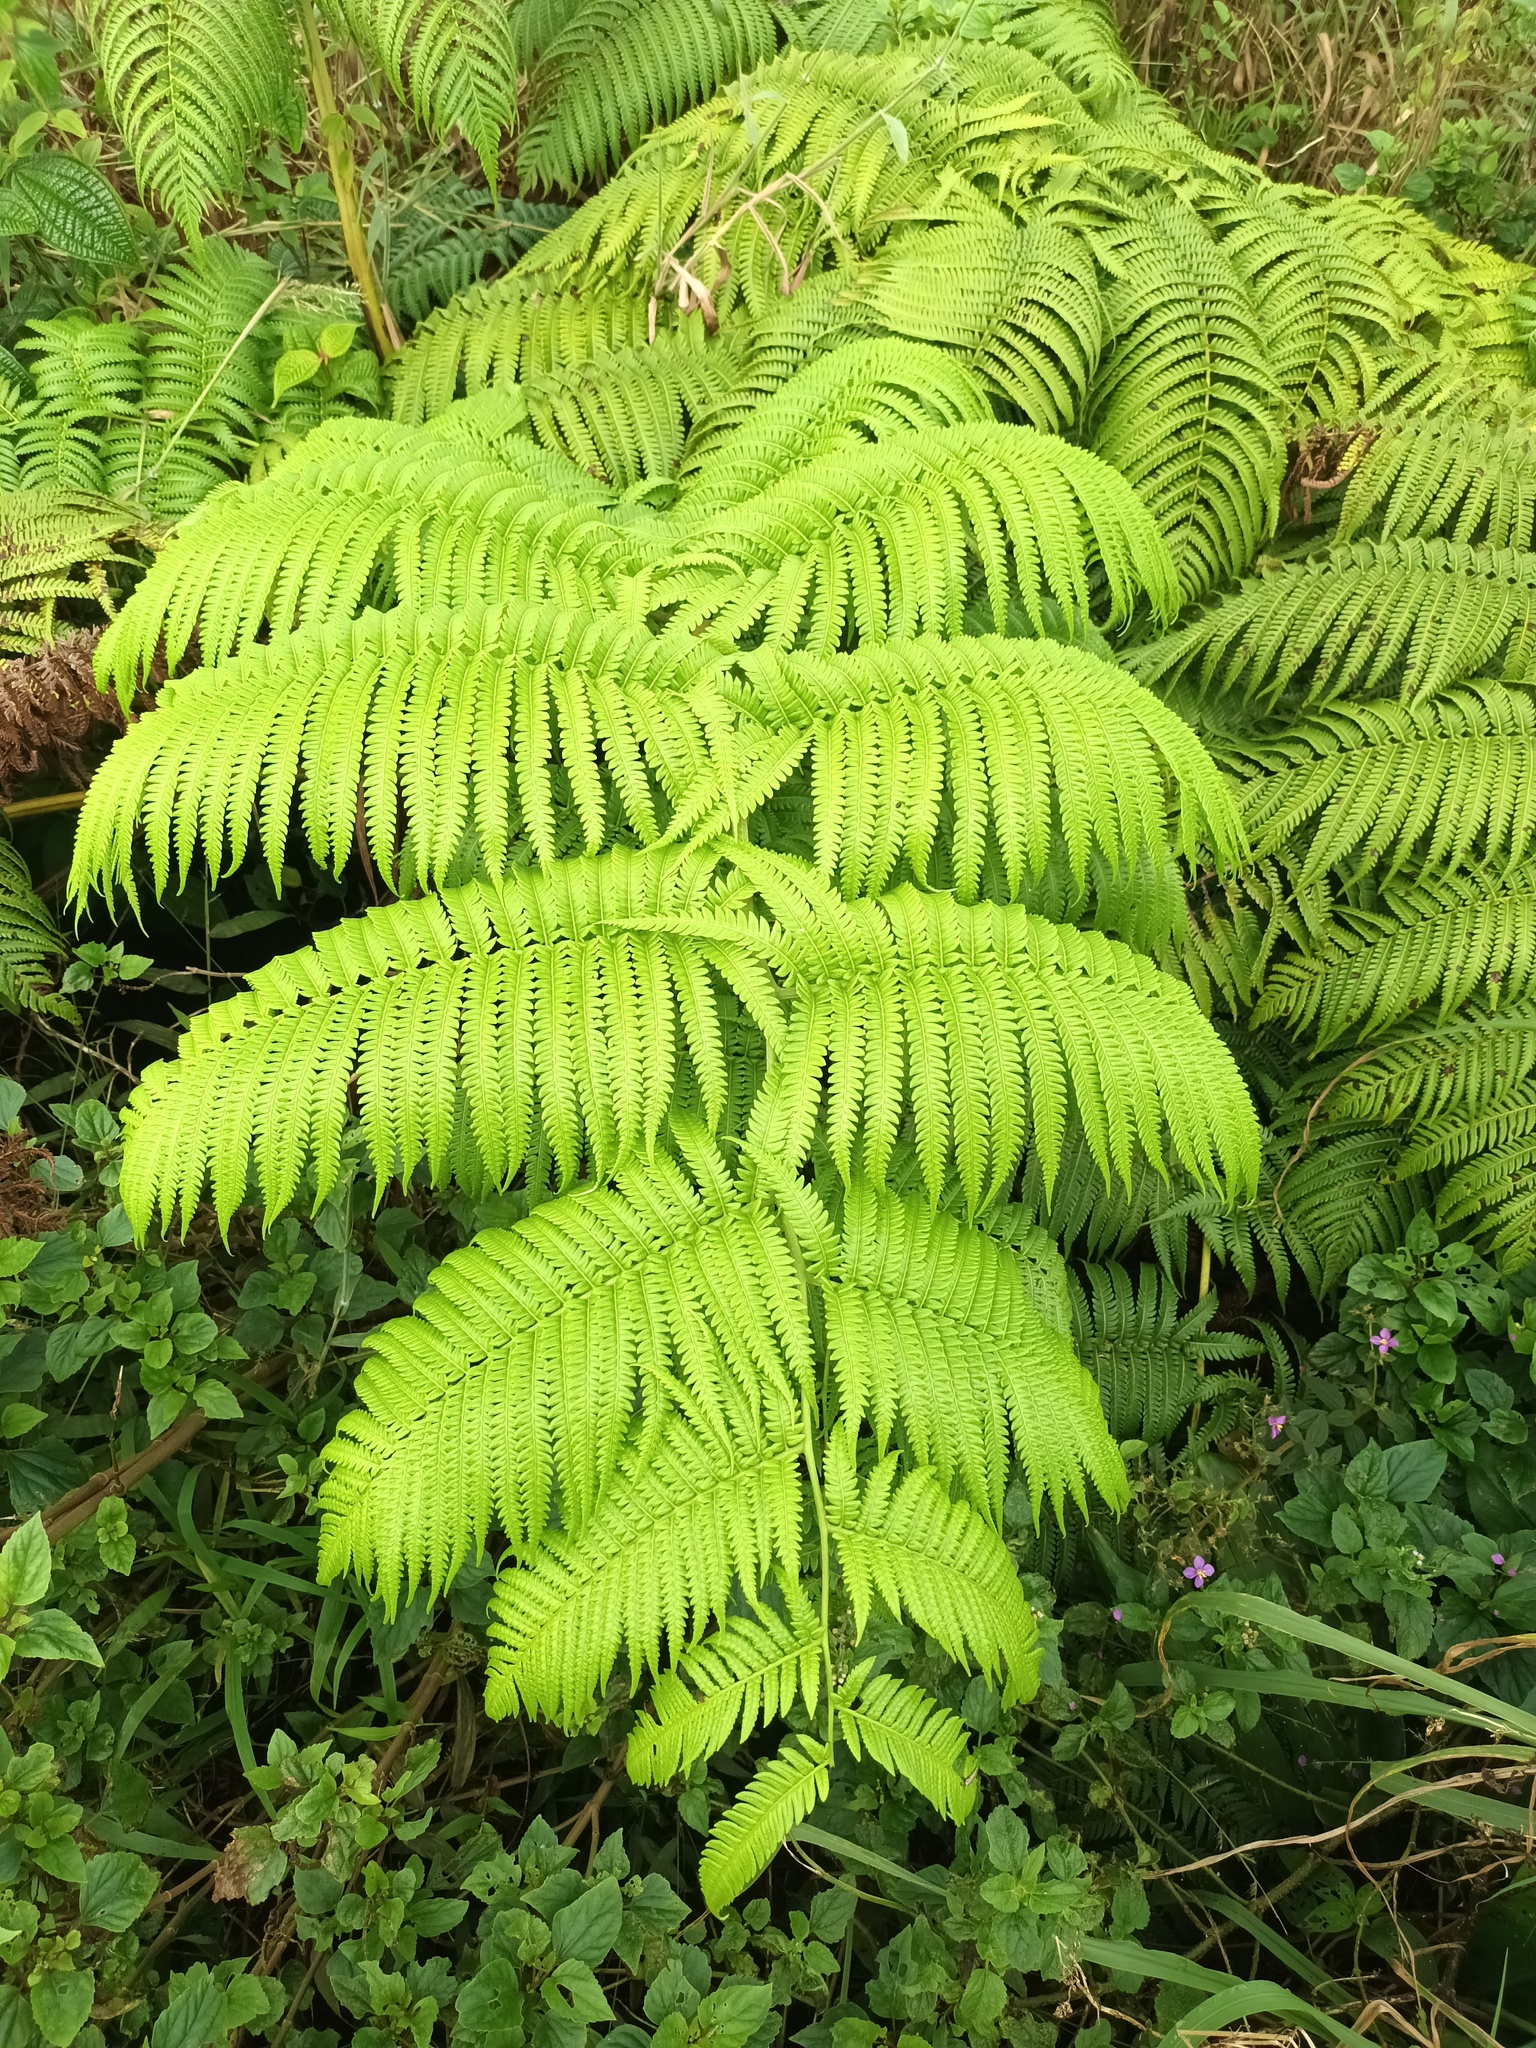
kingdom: Plantae
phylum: Tracheophyta
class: Polypodiopsida
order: Cyatheales
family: Cibotiaceae
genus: Cibotium
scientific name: Cibotium glaucum
